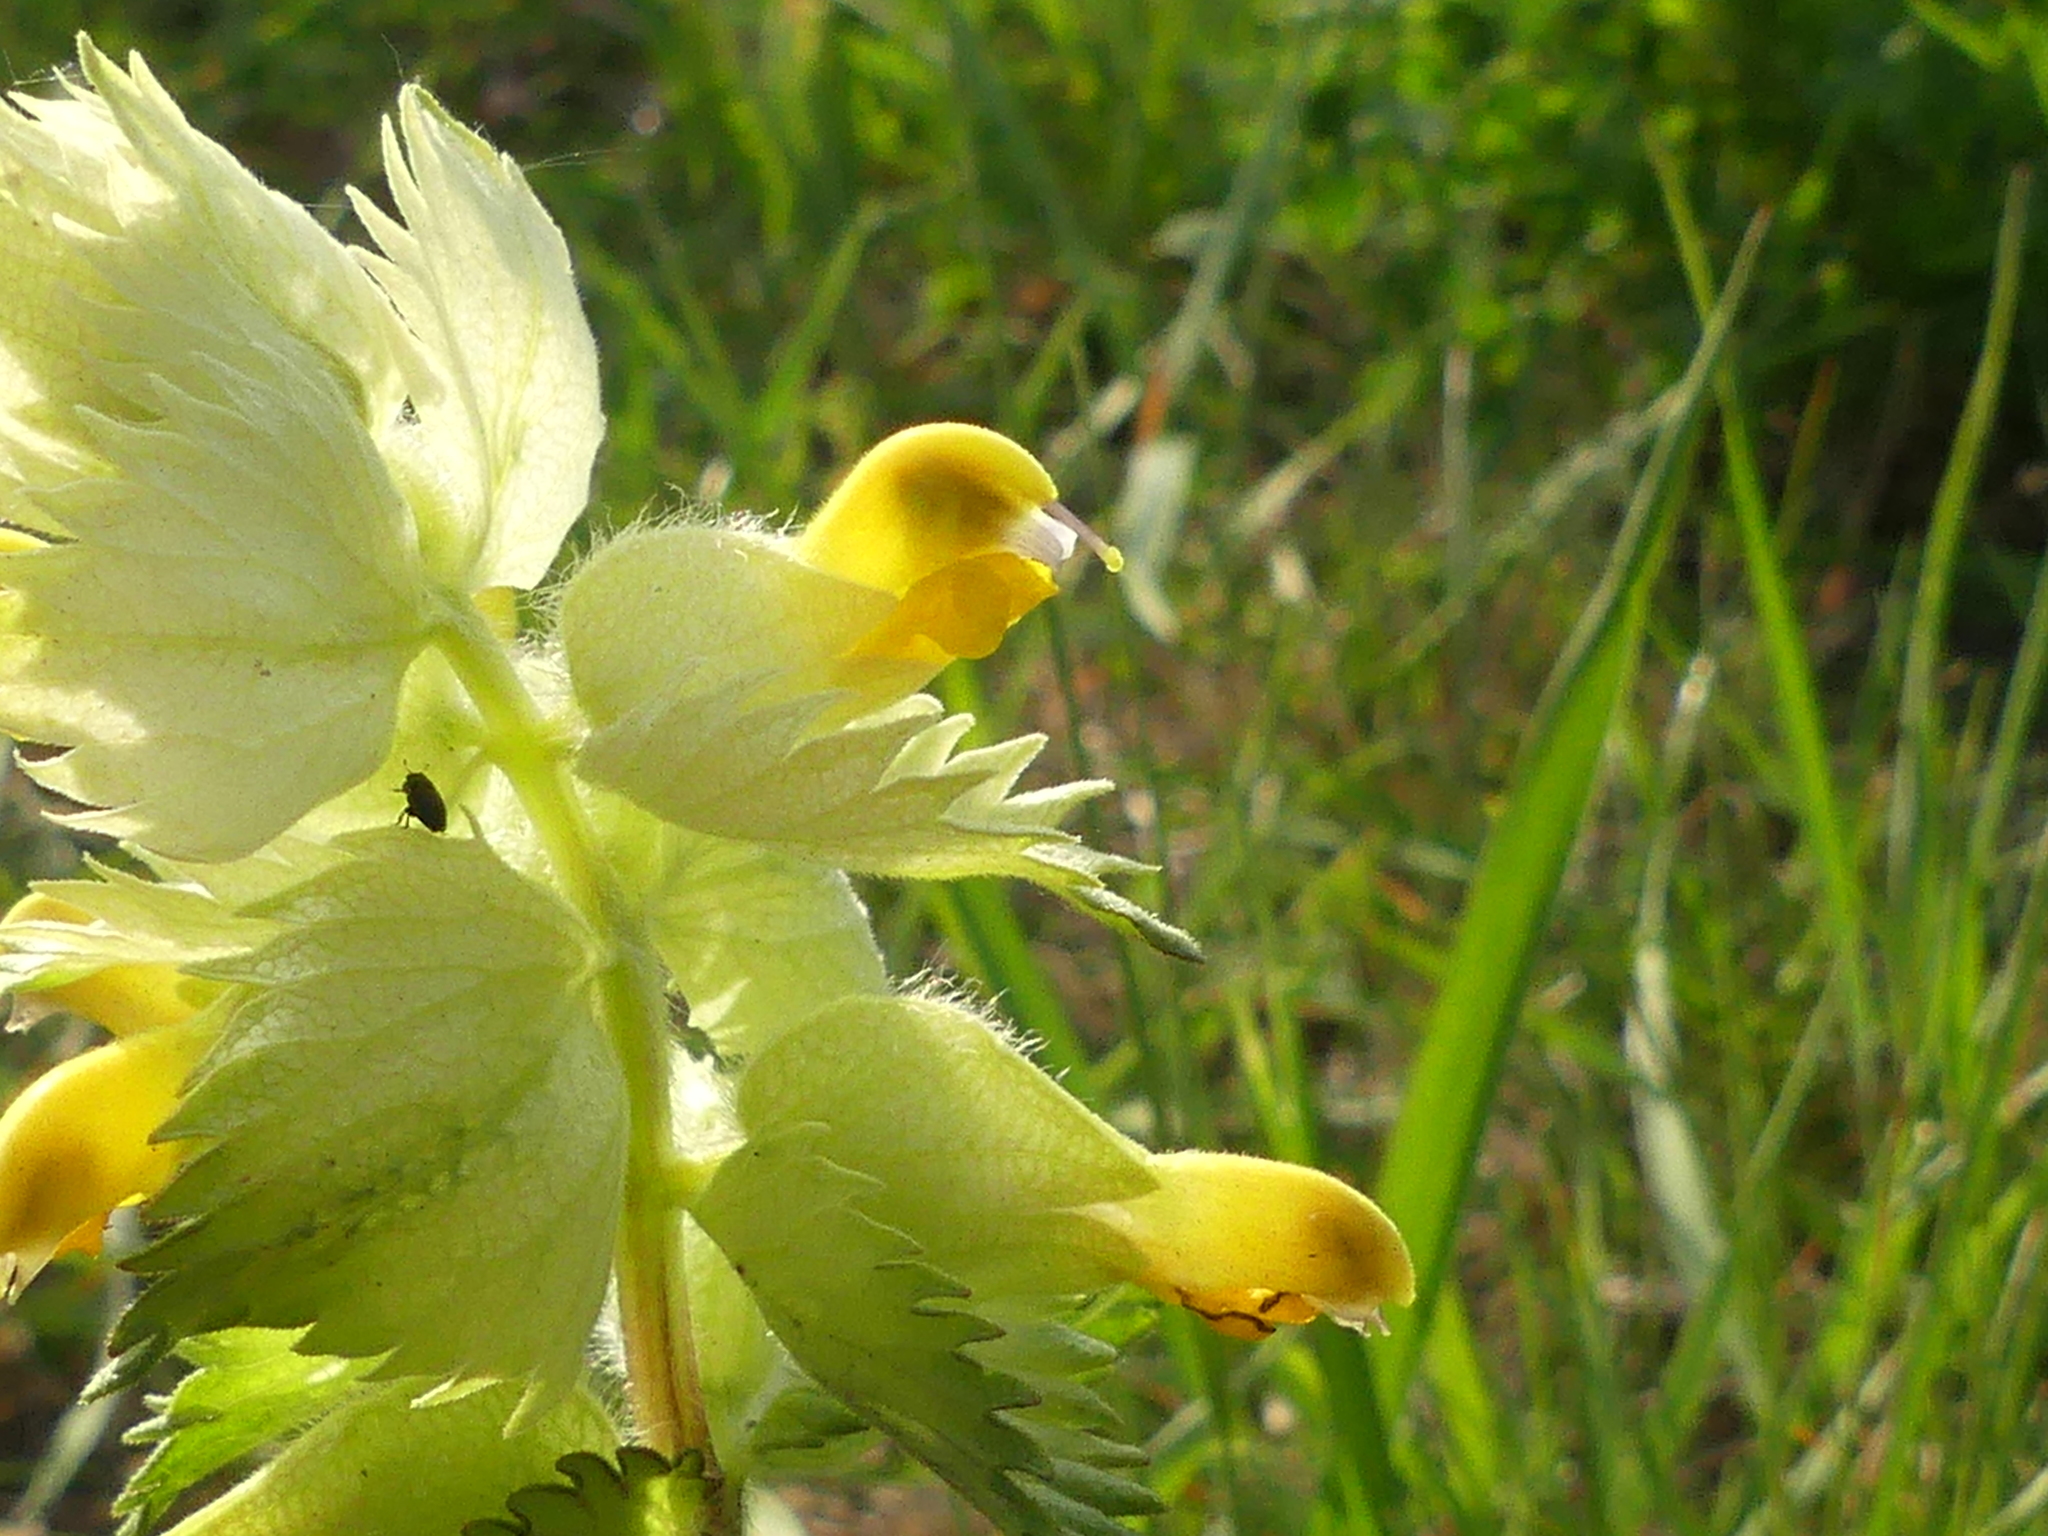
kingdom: Plantae
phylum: Tracheophyta
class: Magnoliopsida
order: Lamiales
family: Orobanchaceae
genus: Rhinanthus
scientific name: Rhinanthus alectorolophus
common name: Greater yellow-rattle
